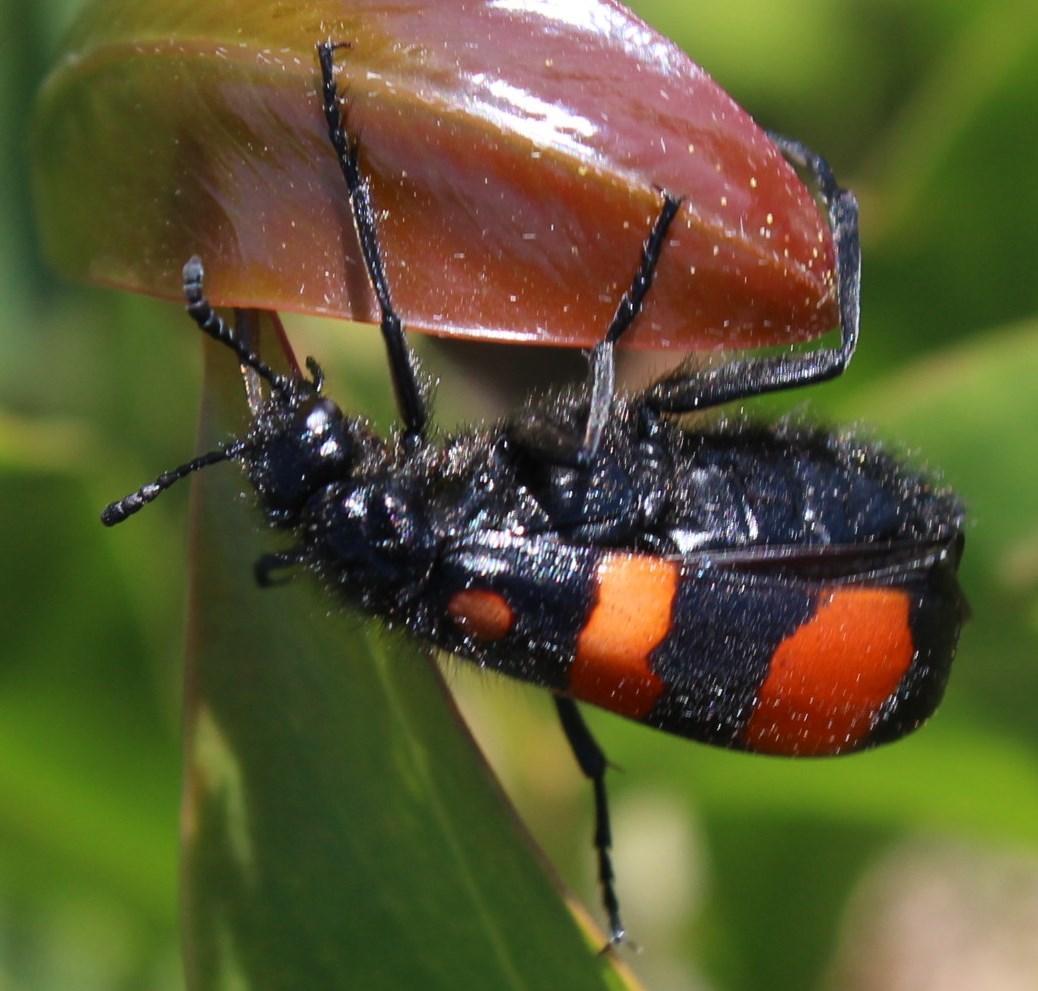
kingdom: Animalia
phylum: Arthropoda
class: Insecta
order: Coleoptera
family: Meloidae
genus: Hycleus
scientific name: Hycleus lavaterae
